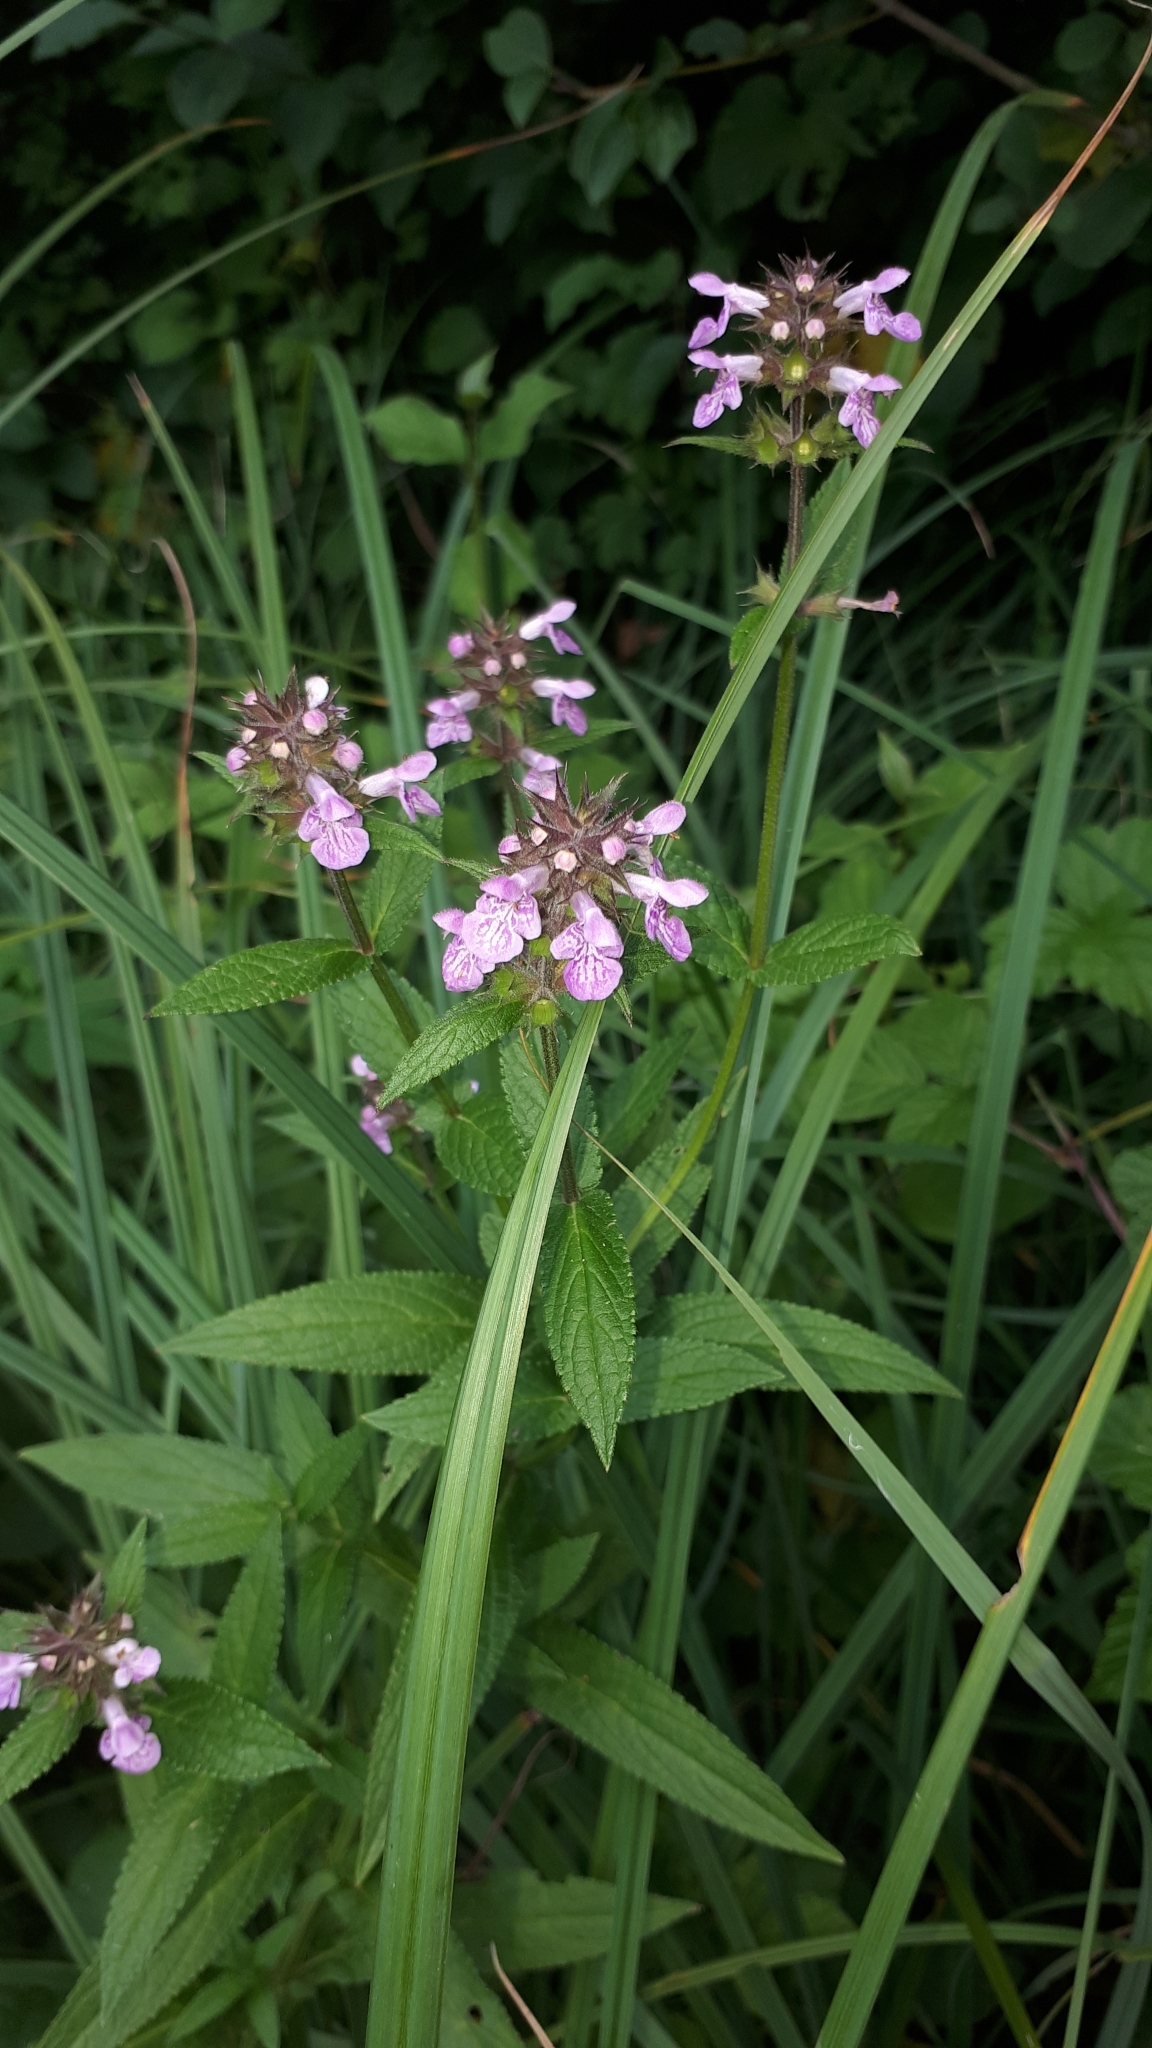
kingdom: Plantae
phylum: Tracheophyta
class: Magnoliopsida
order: Lamiales
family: Lamiaceae
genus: Stachys
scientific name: Stachys palustris
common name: Marsh woundwort
